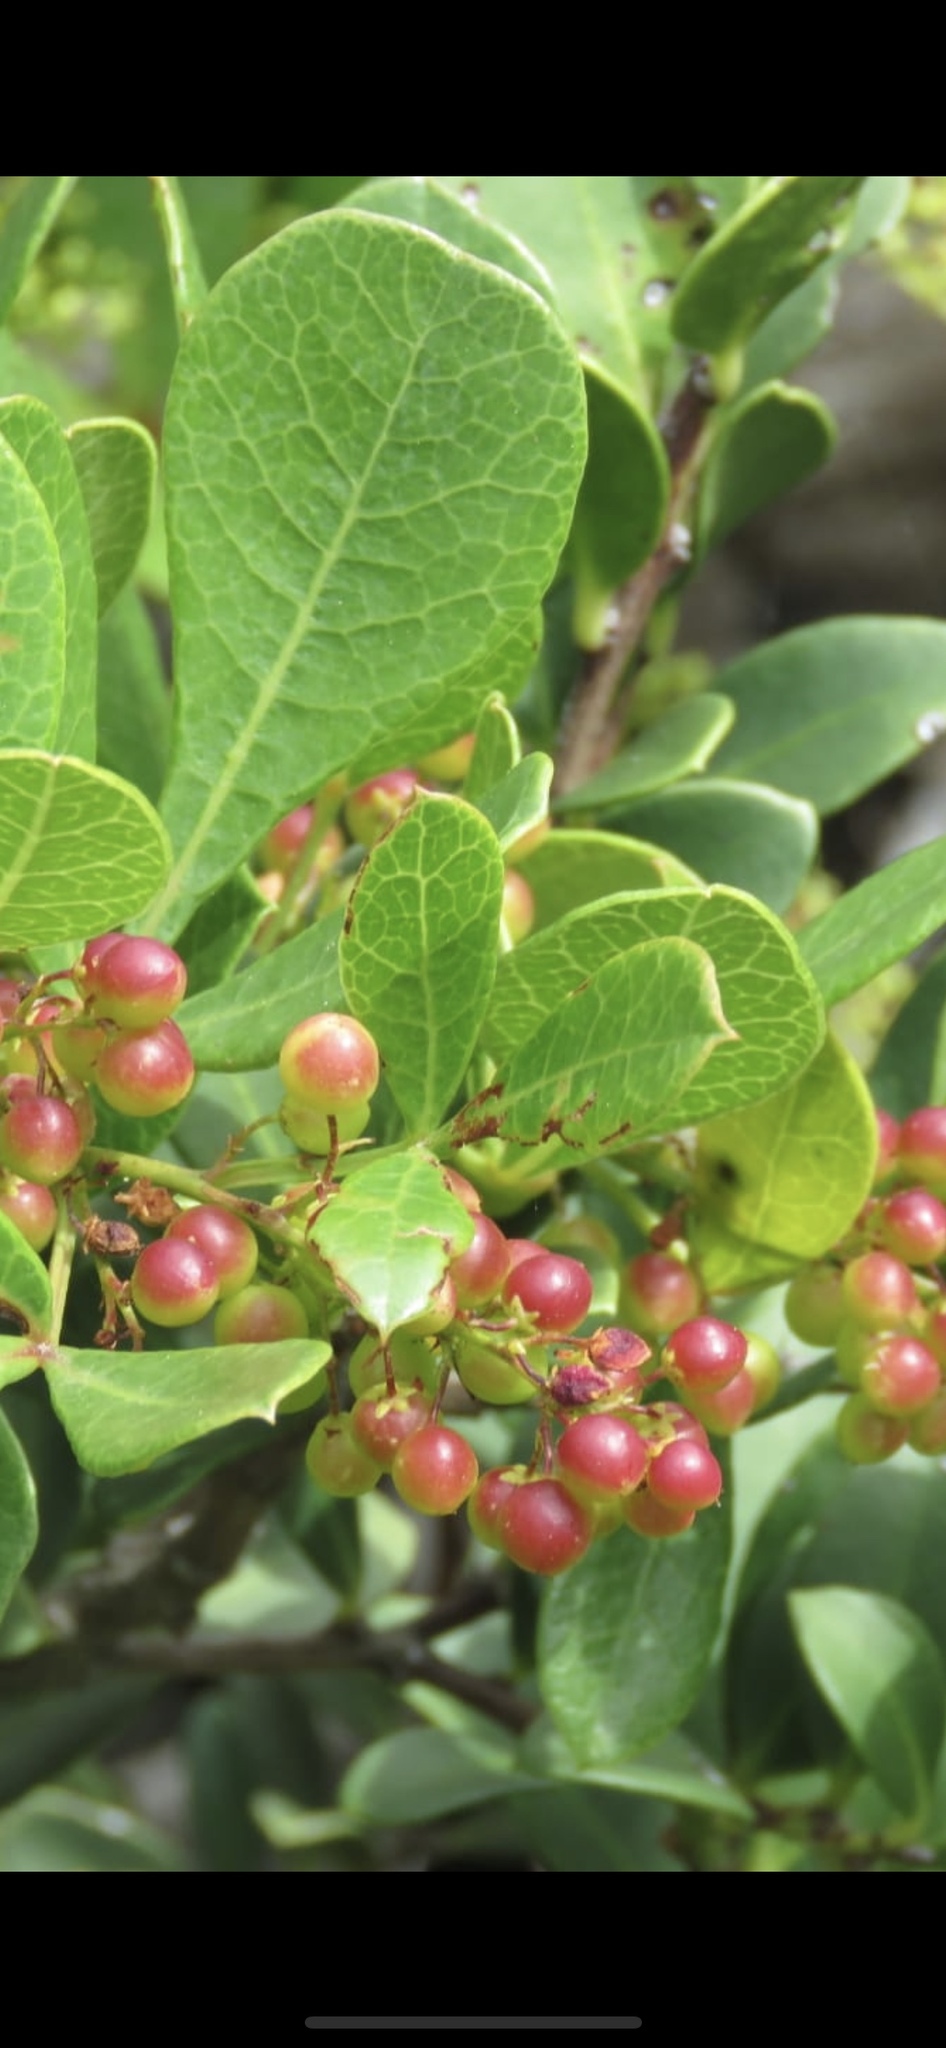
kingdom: Plantae
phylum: Tracheophyta
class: Magnoliopsida
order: Sapindales
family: Anacardiaceae
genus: Searsia
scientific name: Searsia laevigata
